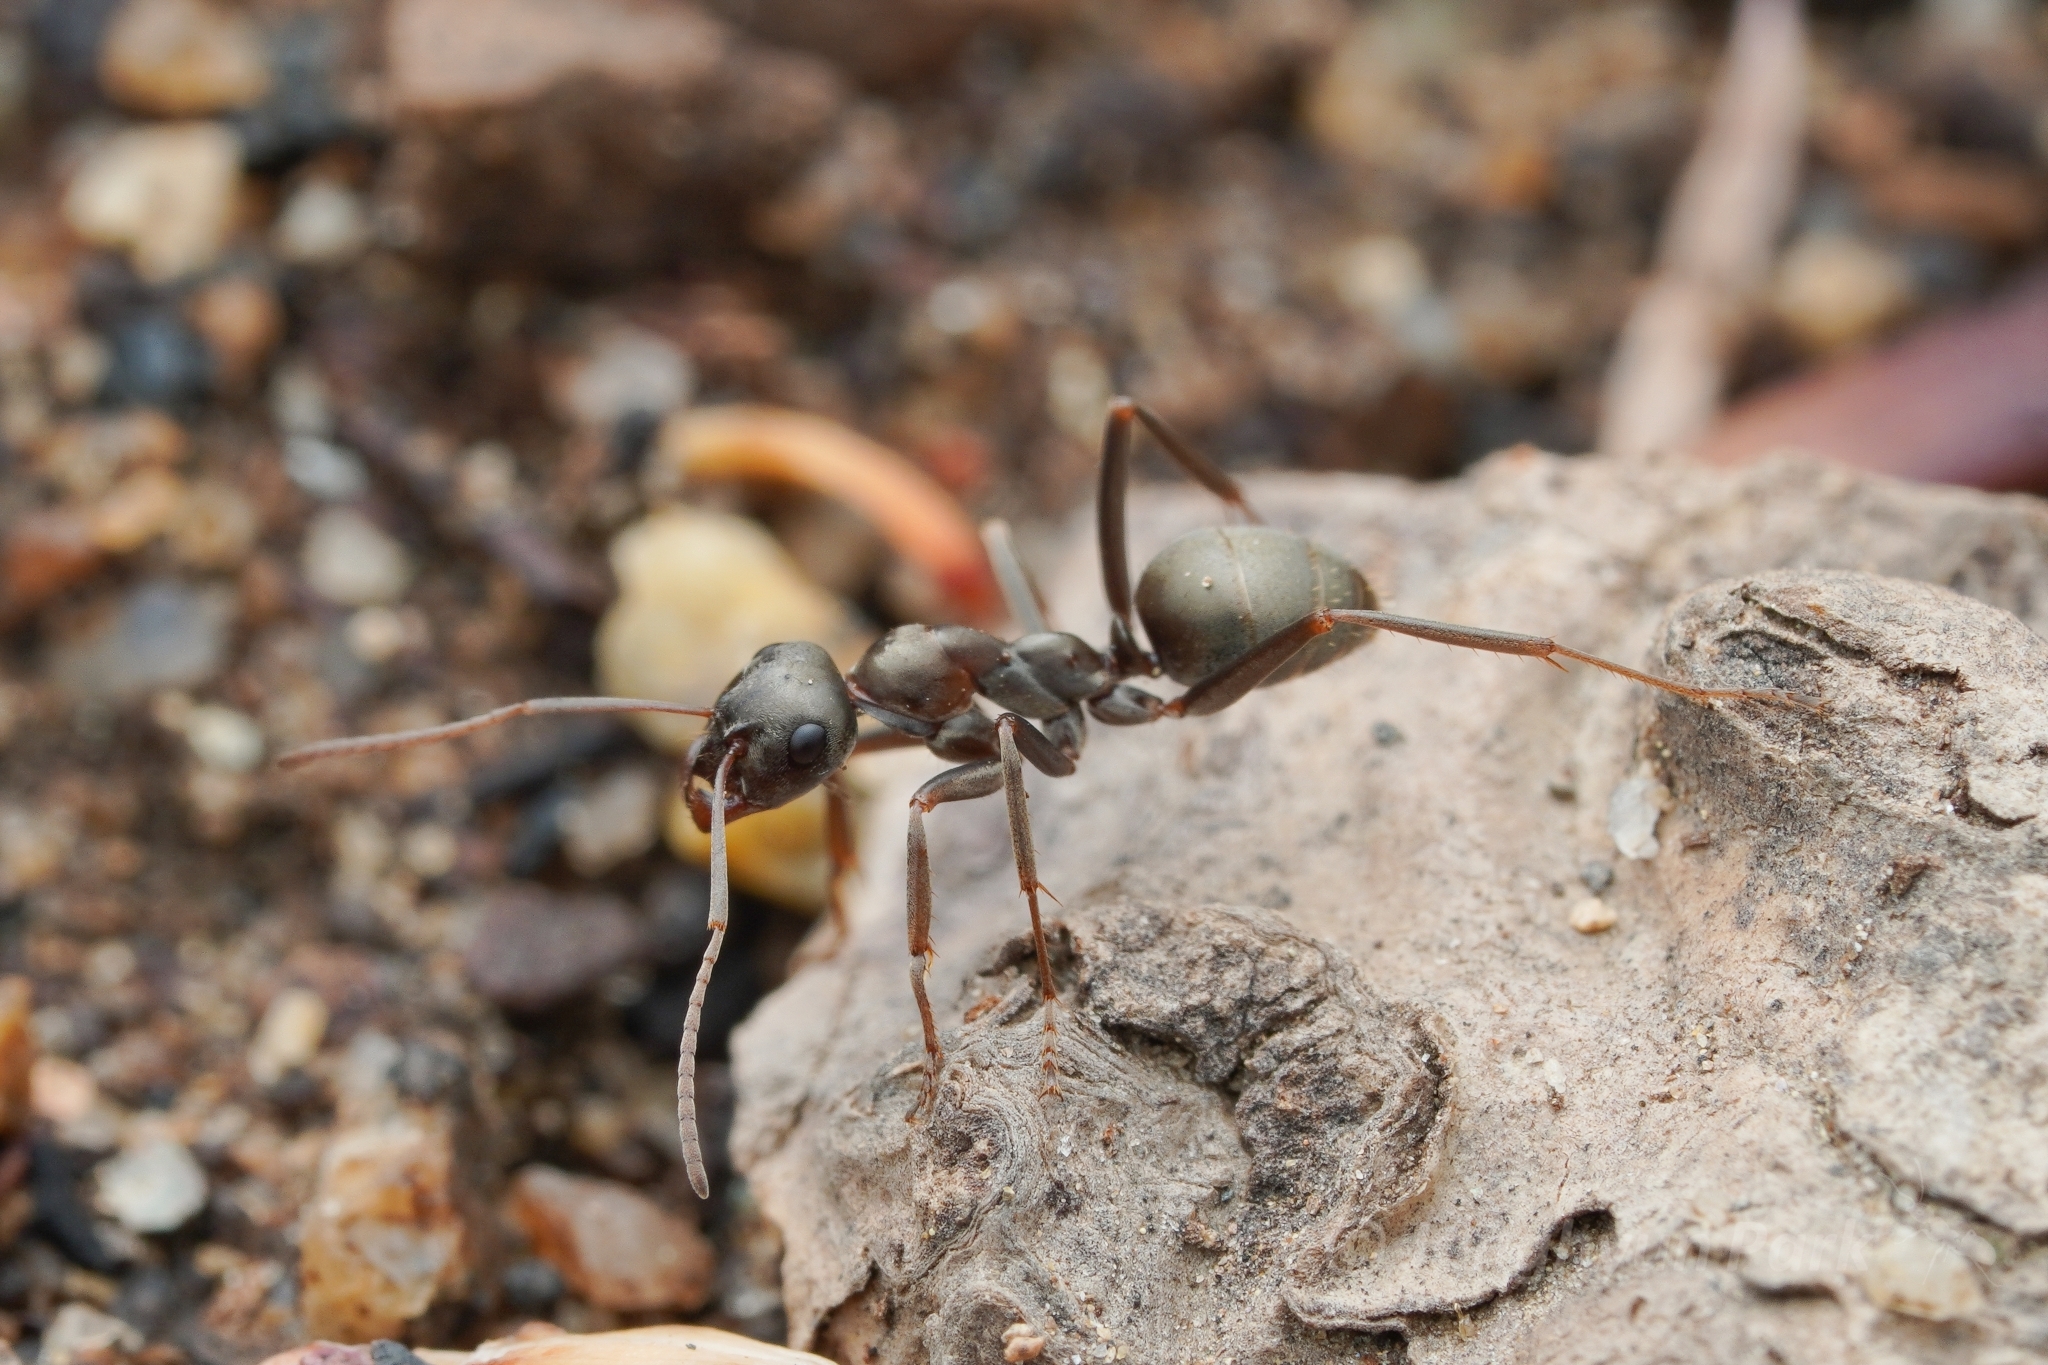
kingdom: Animalia
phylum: Arthropoda
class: Insecta
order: Hymenoptera
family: Formicidae
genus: Formica
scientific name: Formica sibylla
